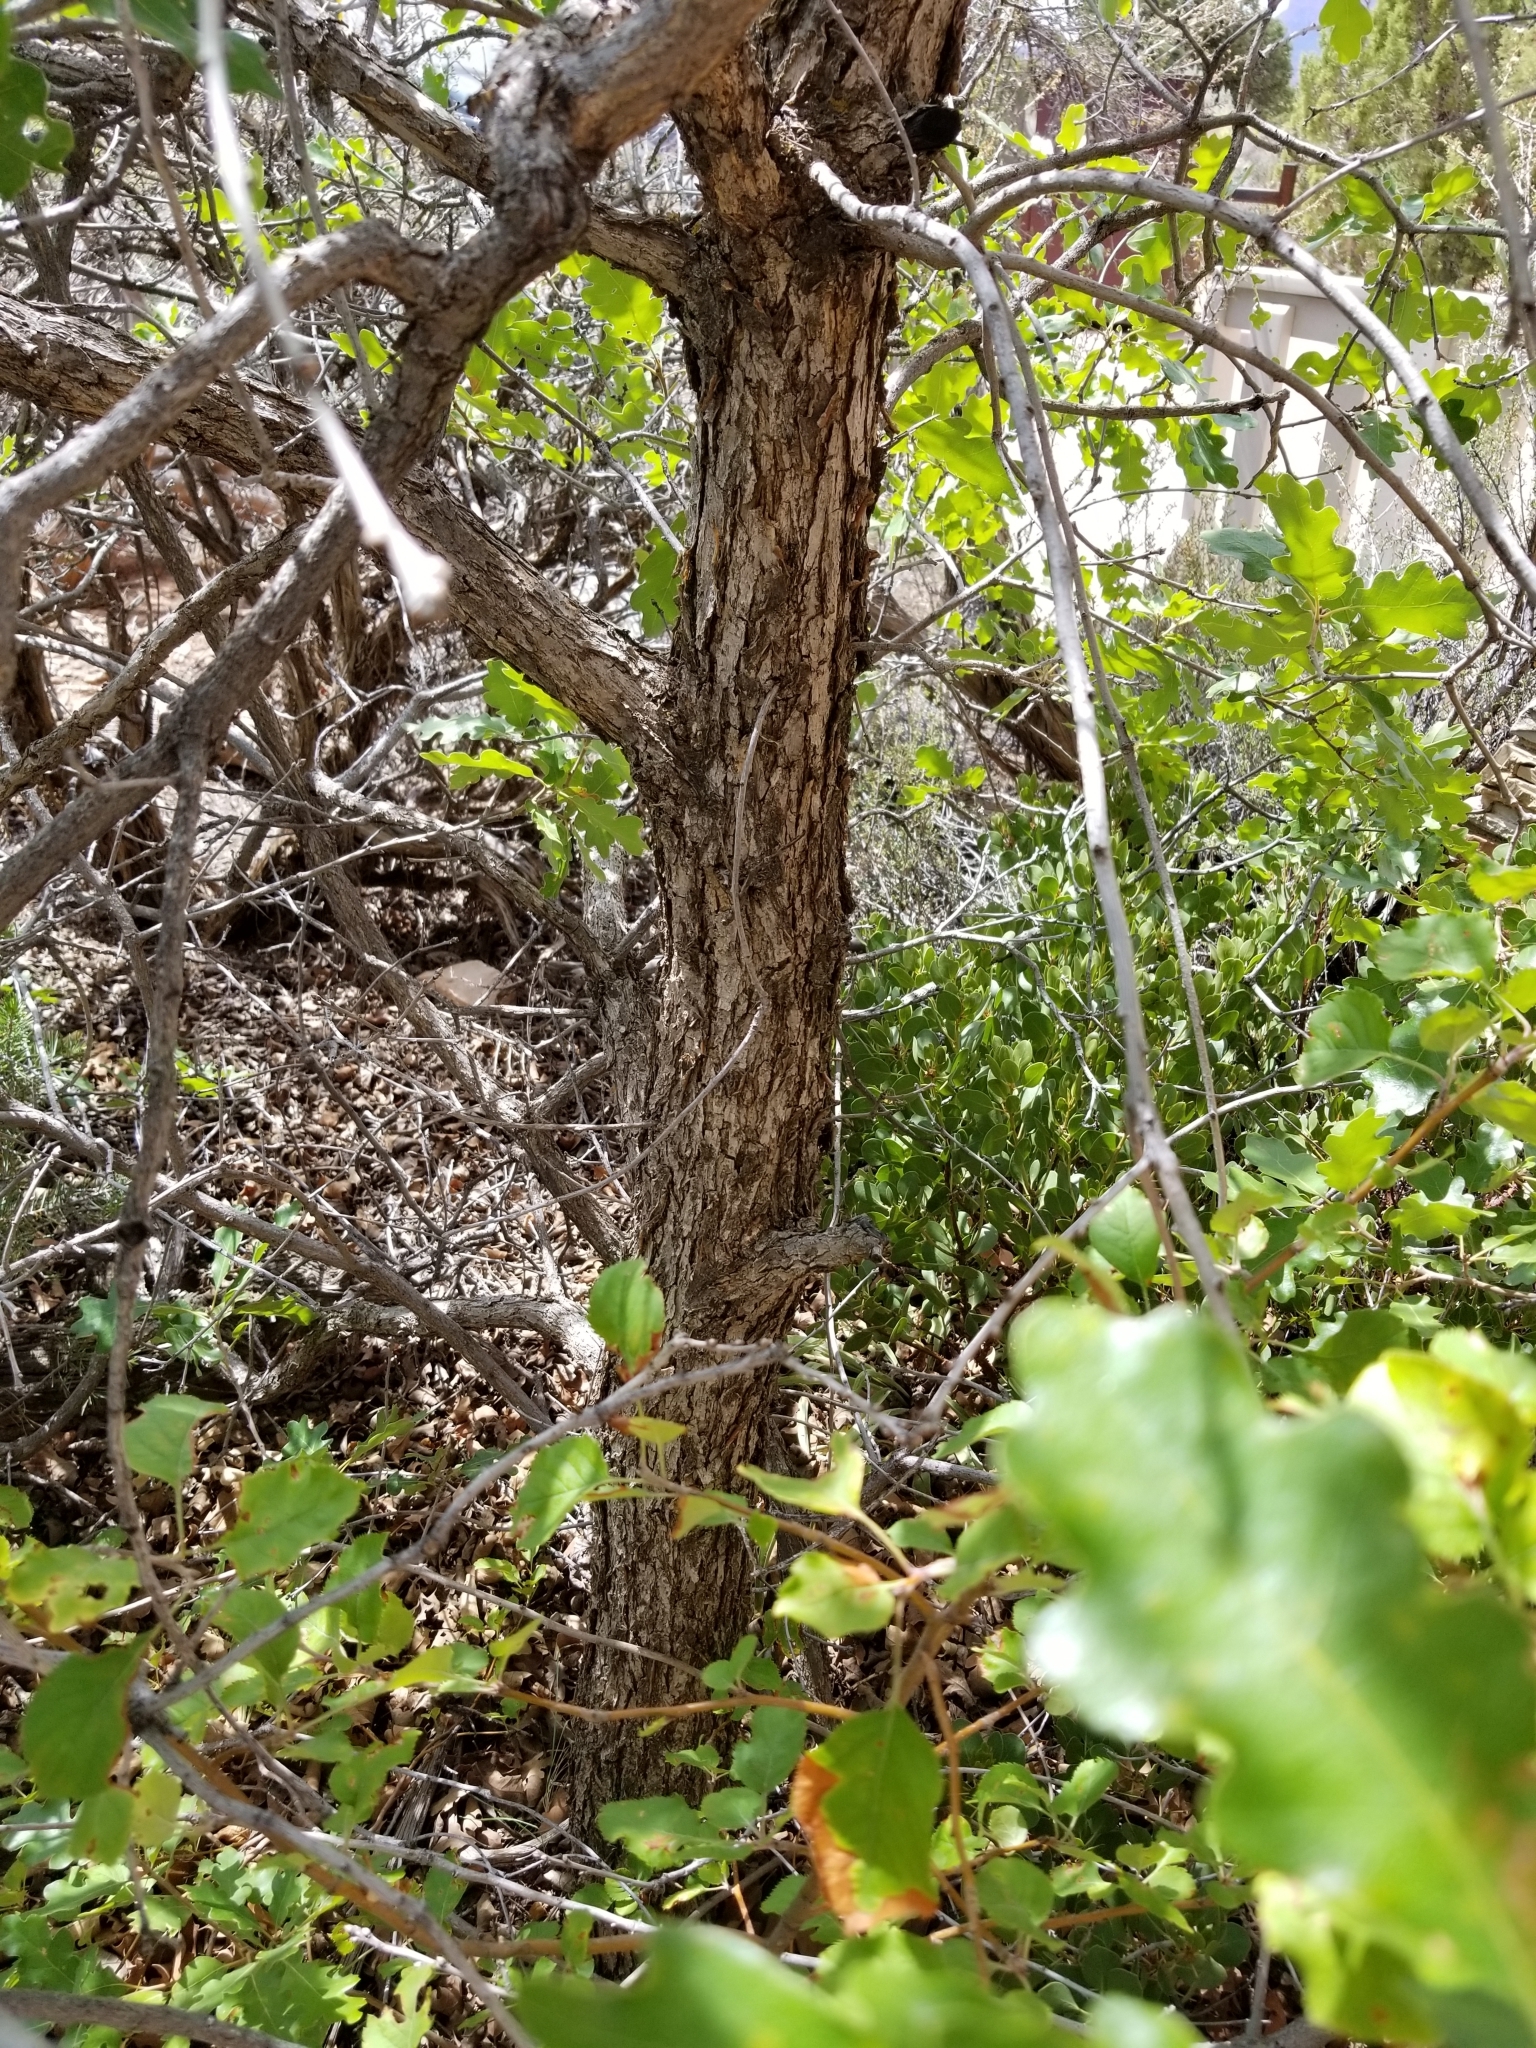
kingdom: Plantae
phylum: Tracheophyta
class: Magnoliopsida
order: Fagales
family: Fagaceae
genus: Quercus
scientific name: Quercus gambelii
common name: Gambel oak
